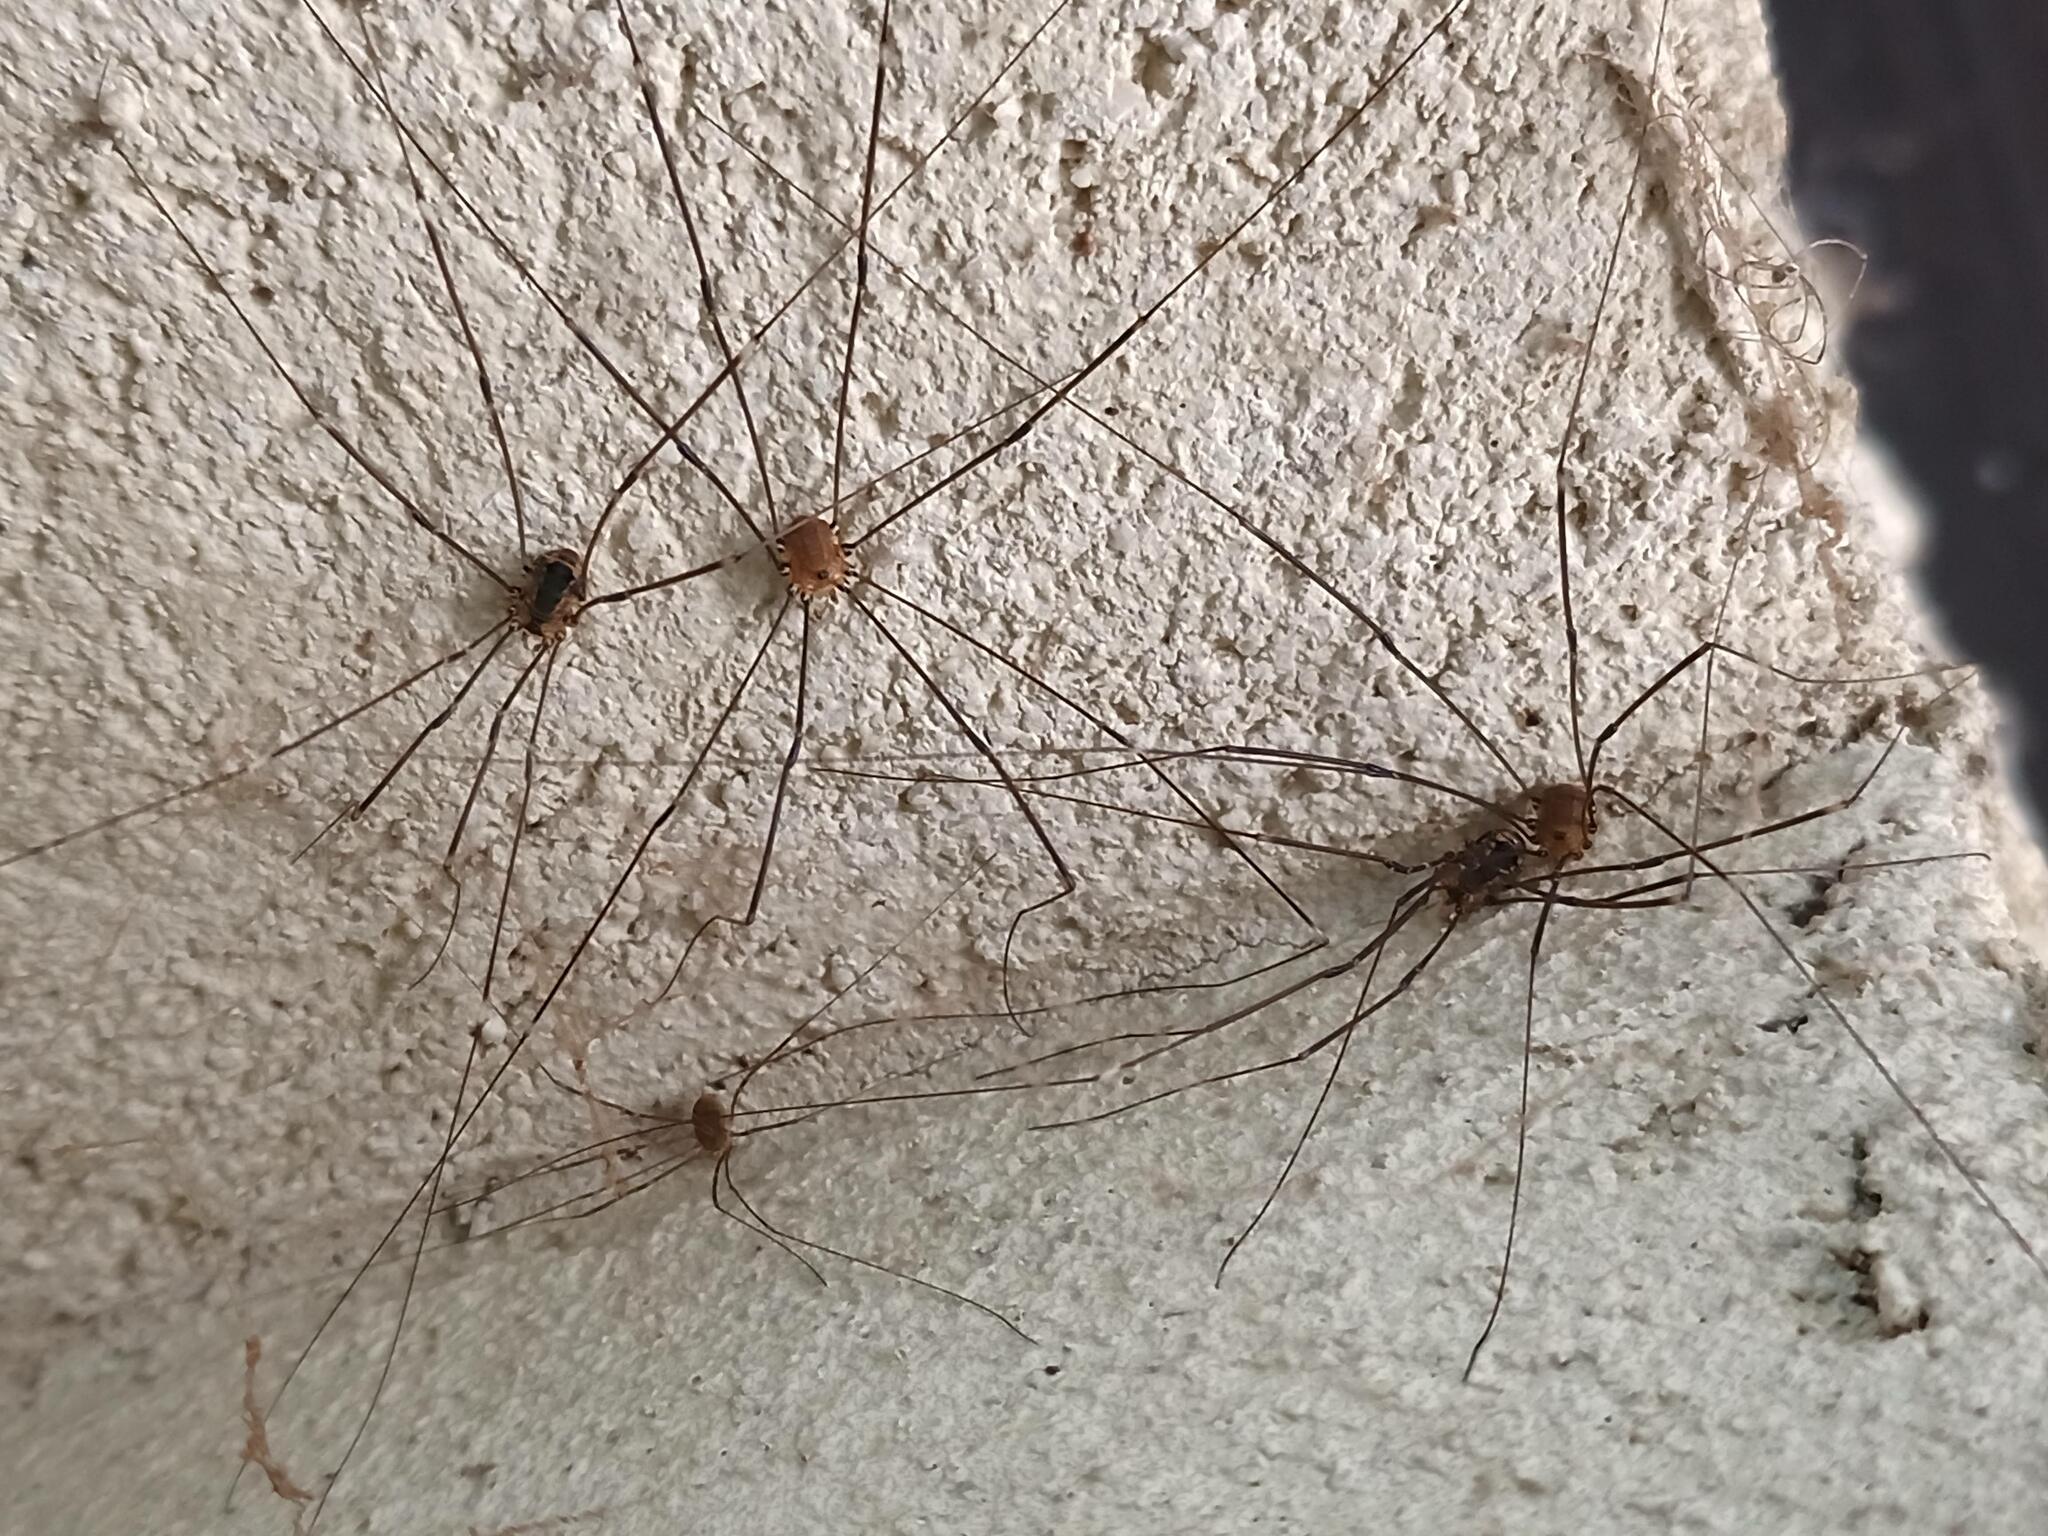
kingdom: Animalia
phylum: Arthropoda
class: Arachnida
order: Opiliones
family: Sclerosomatidae
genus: Leiobunum
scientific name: Leiobunum rotundum
